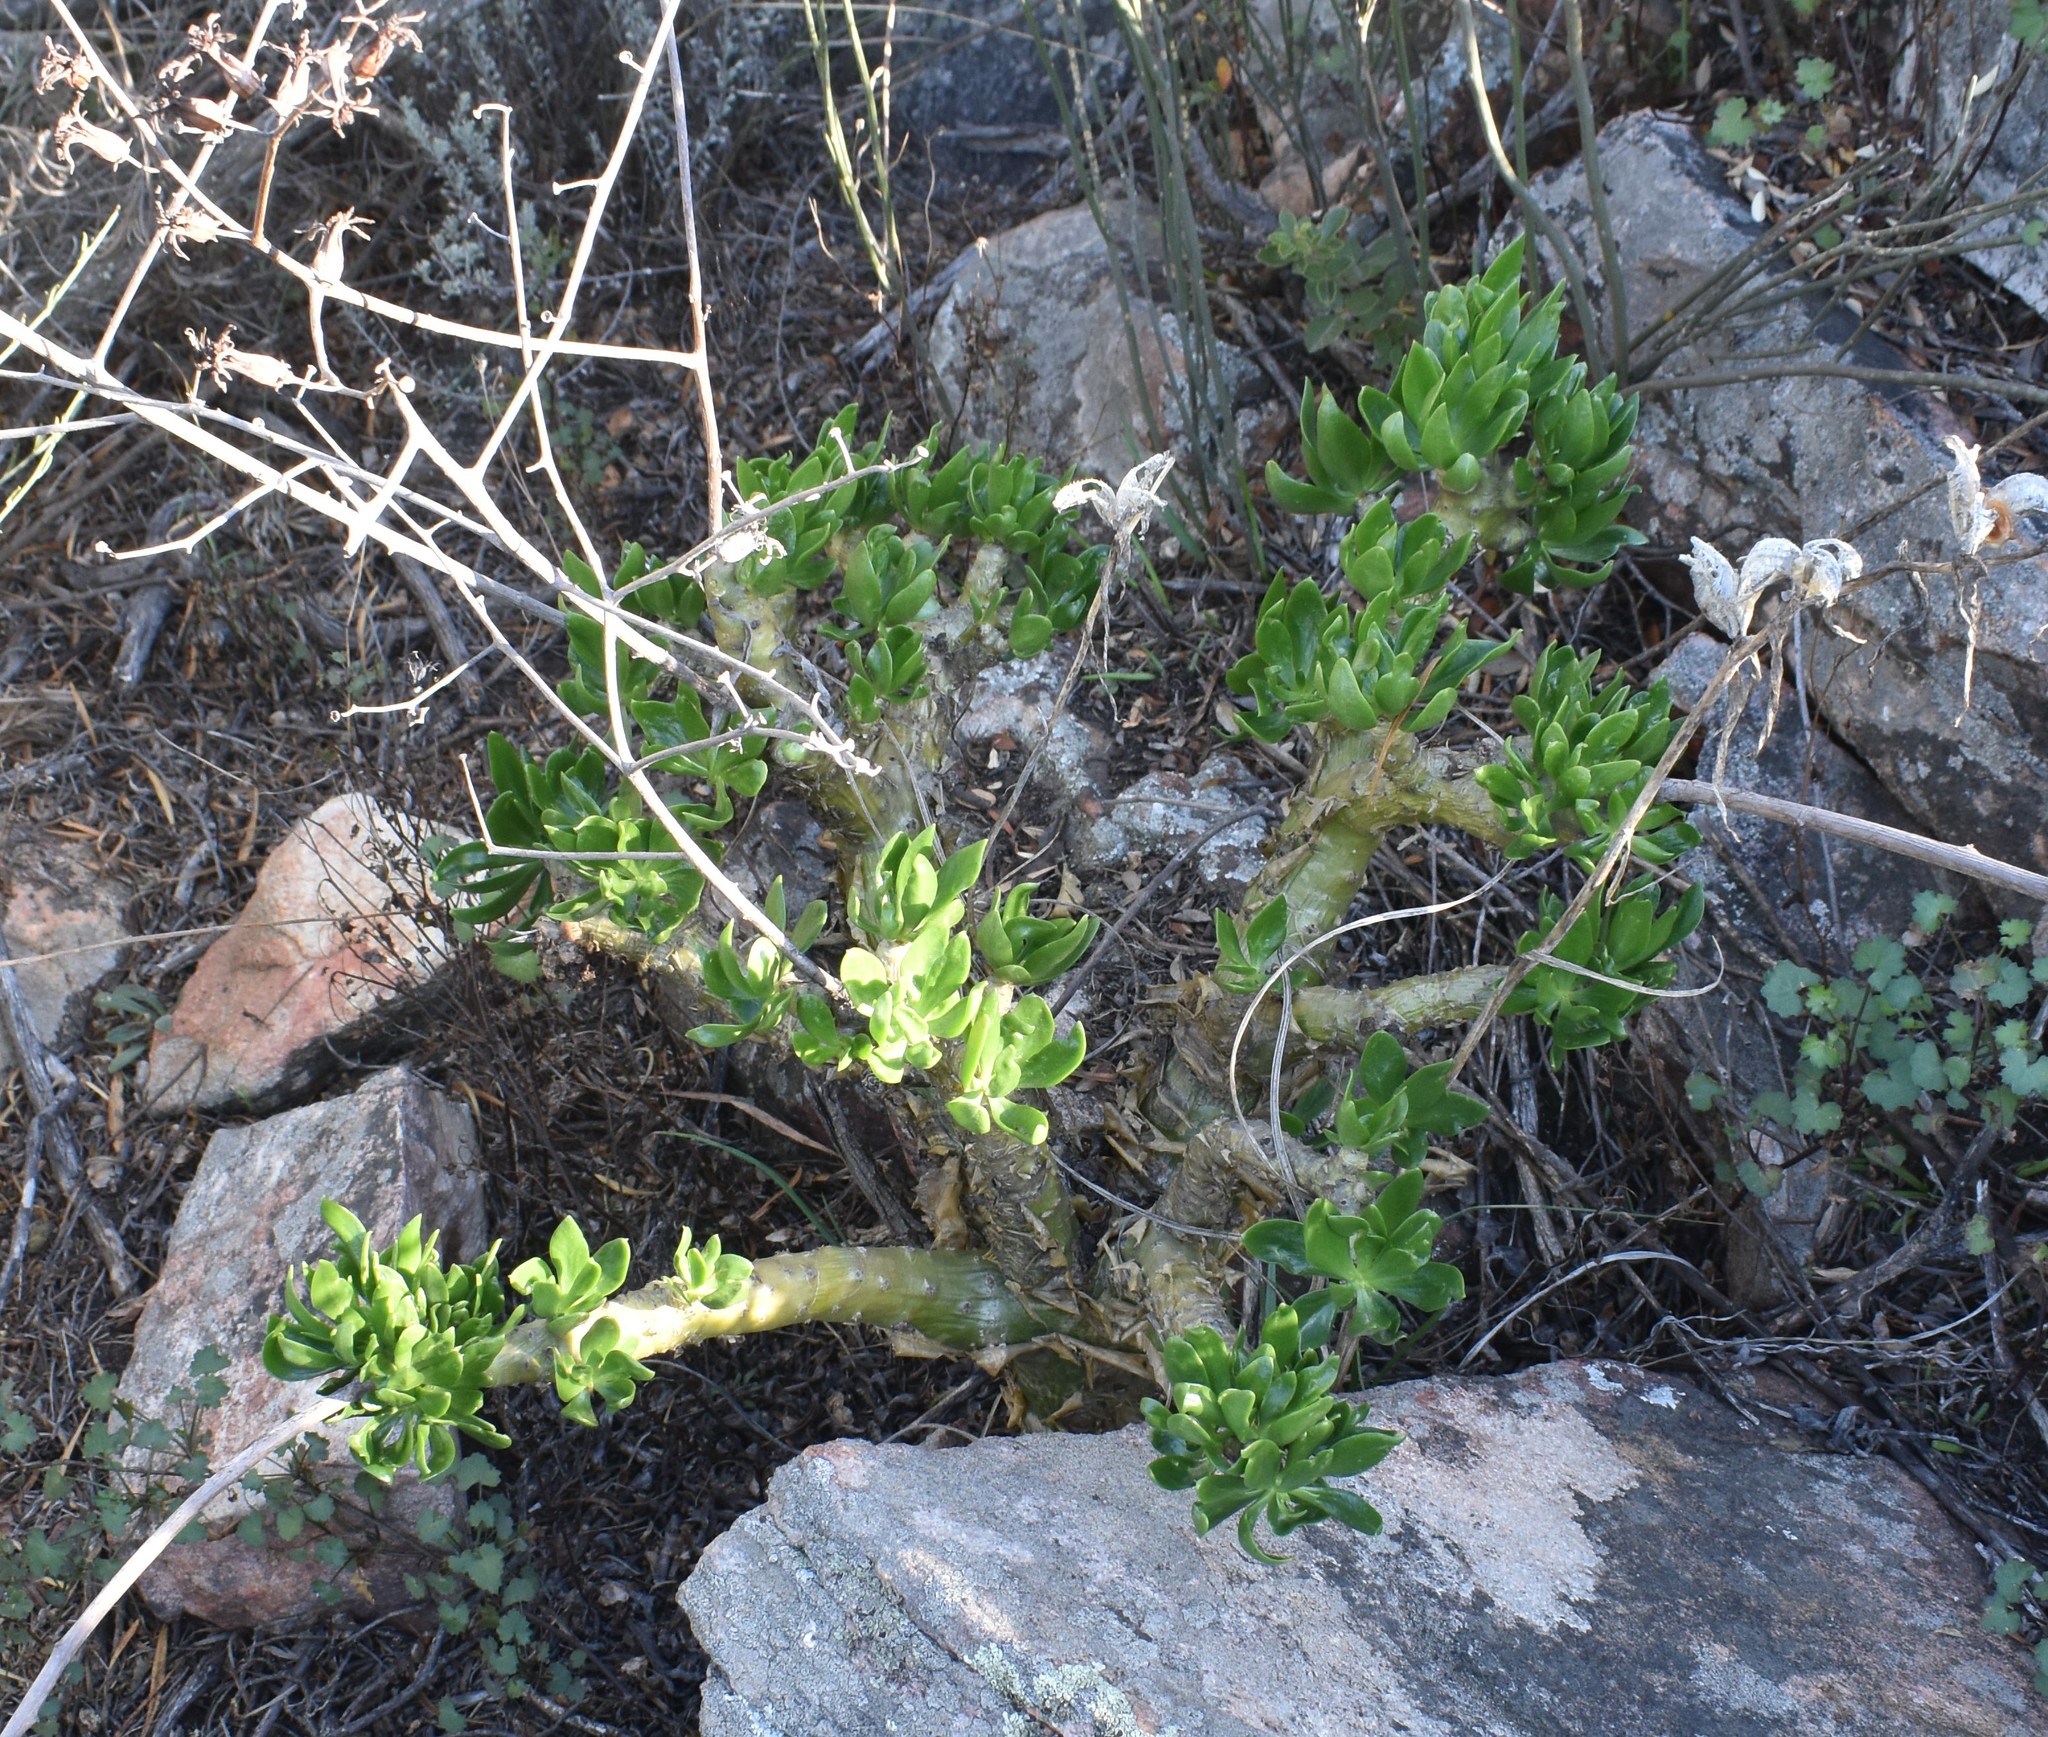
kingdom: Plantae
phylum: Tracheophyta
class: Magnoliopsida
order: Saxifragales
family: Crassulaceae
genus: Tylecodon
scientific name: Tylecodon paniculatus
